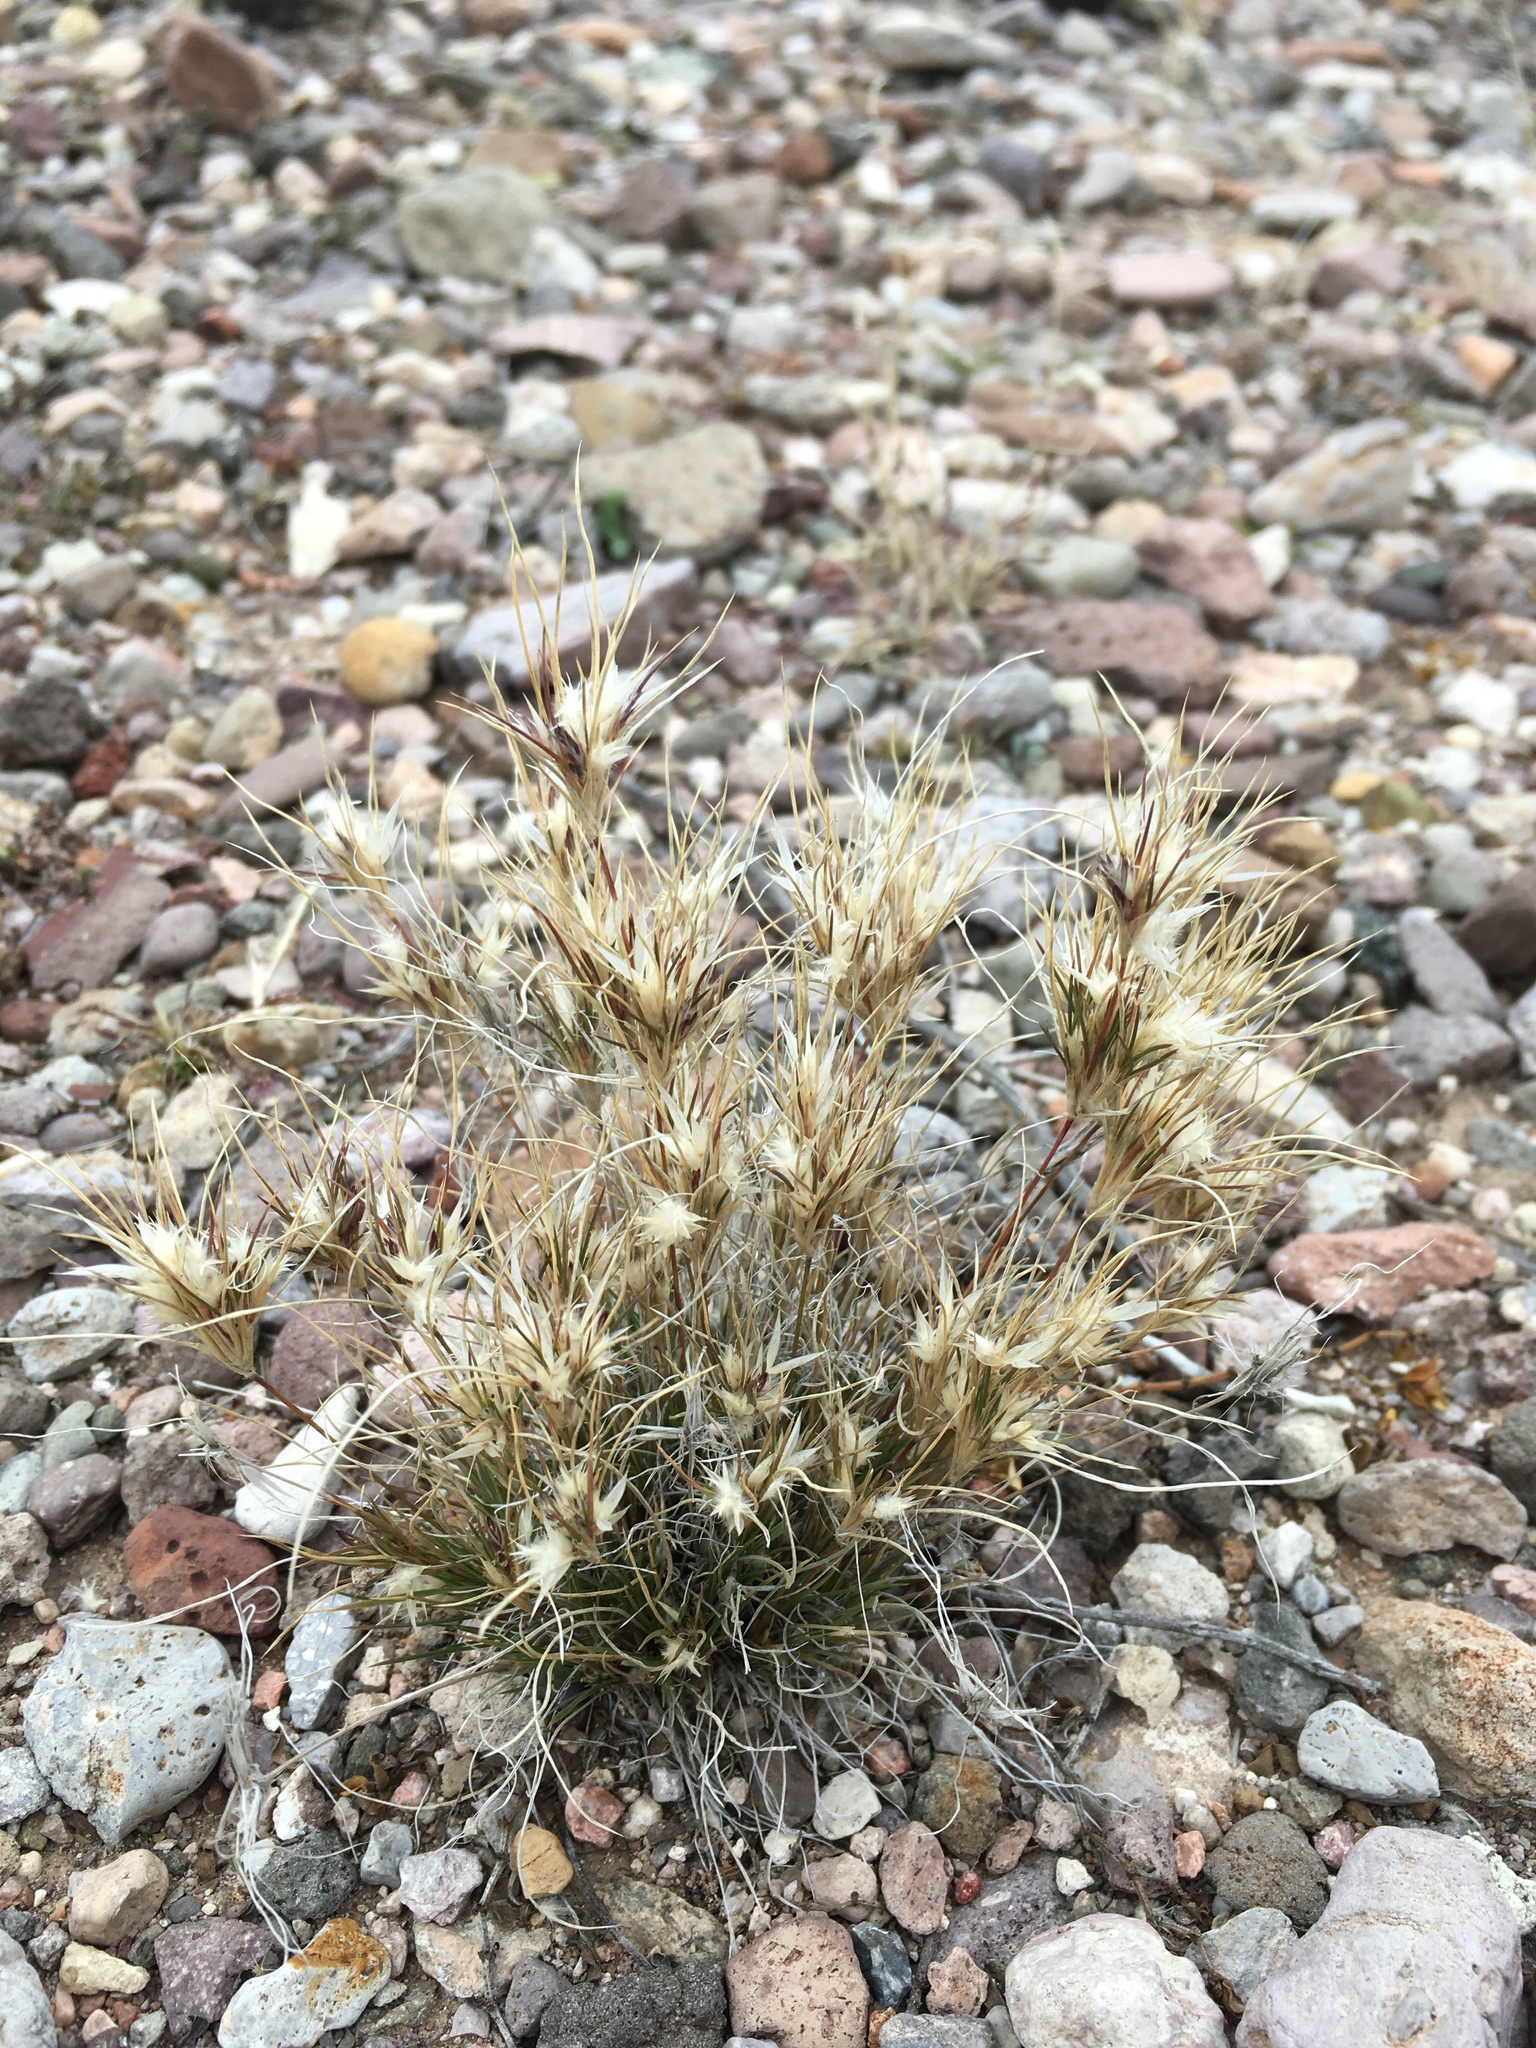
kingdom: Plantae
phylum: Tracheophyta
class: Liliopsida
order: Poales
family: Poaceae
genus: Dasyochloa
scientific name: Dasyochloa pulchella
